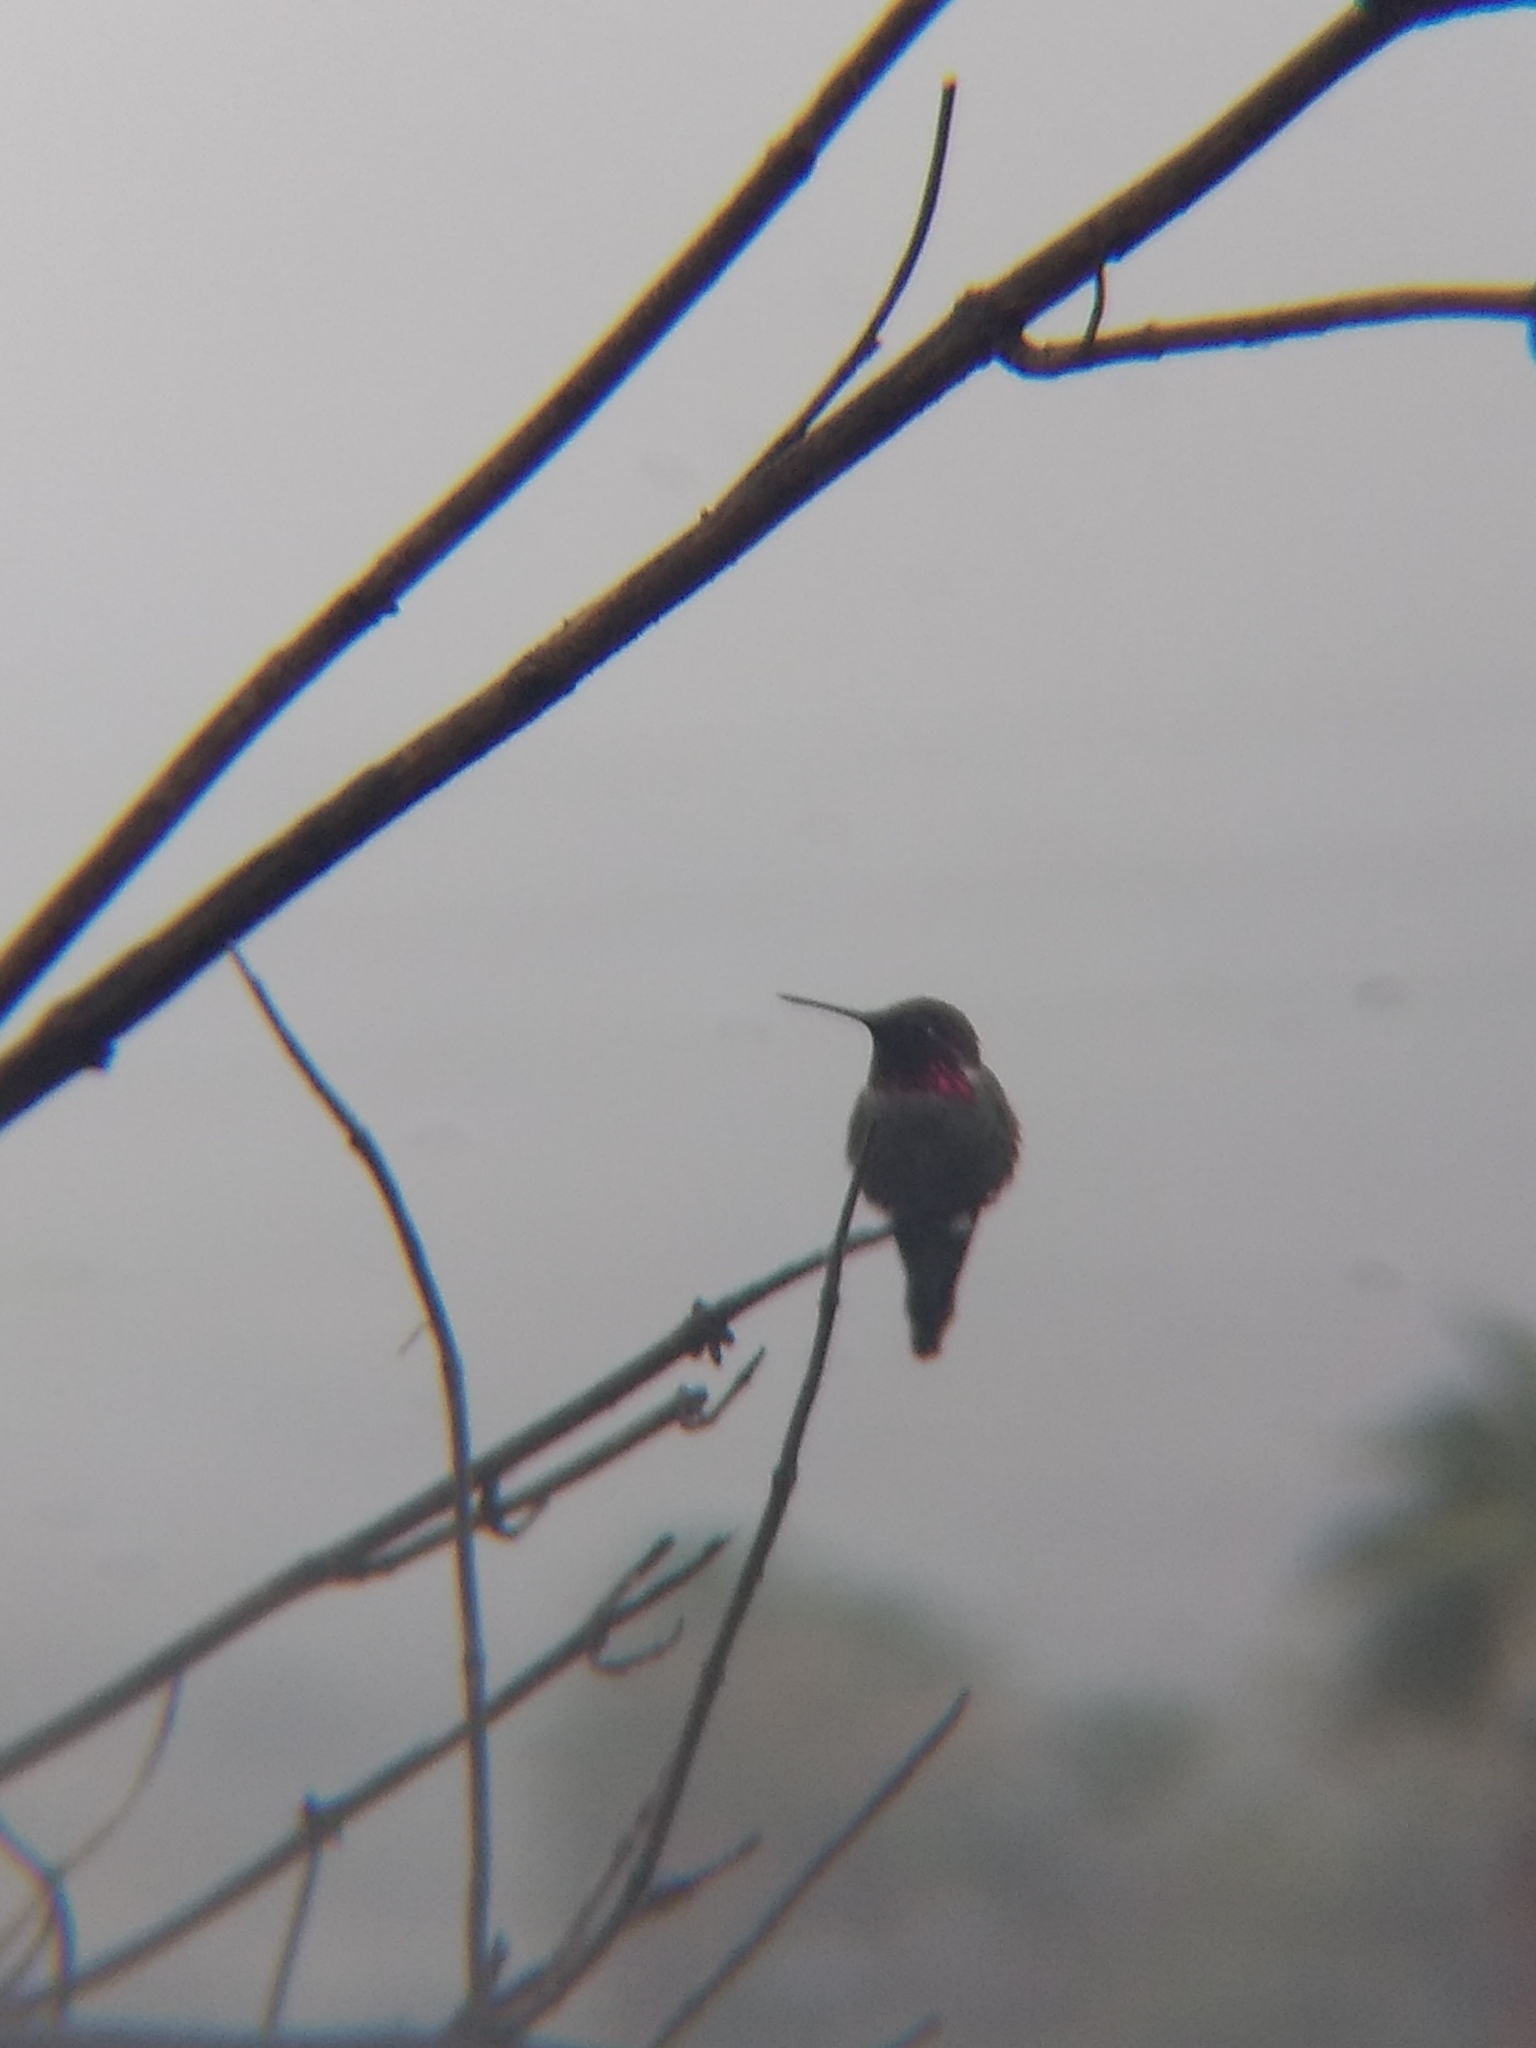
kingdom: Animalia
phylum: Chordata
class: Aves
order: Apodiformes
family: Trochilidae
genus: Calypte
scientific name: Calypte anna
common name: Anna's hummingbird
